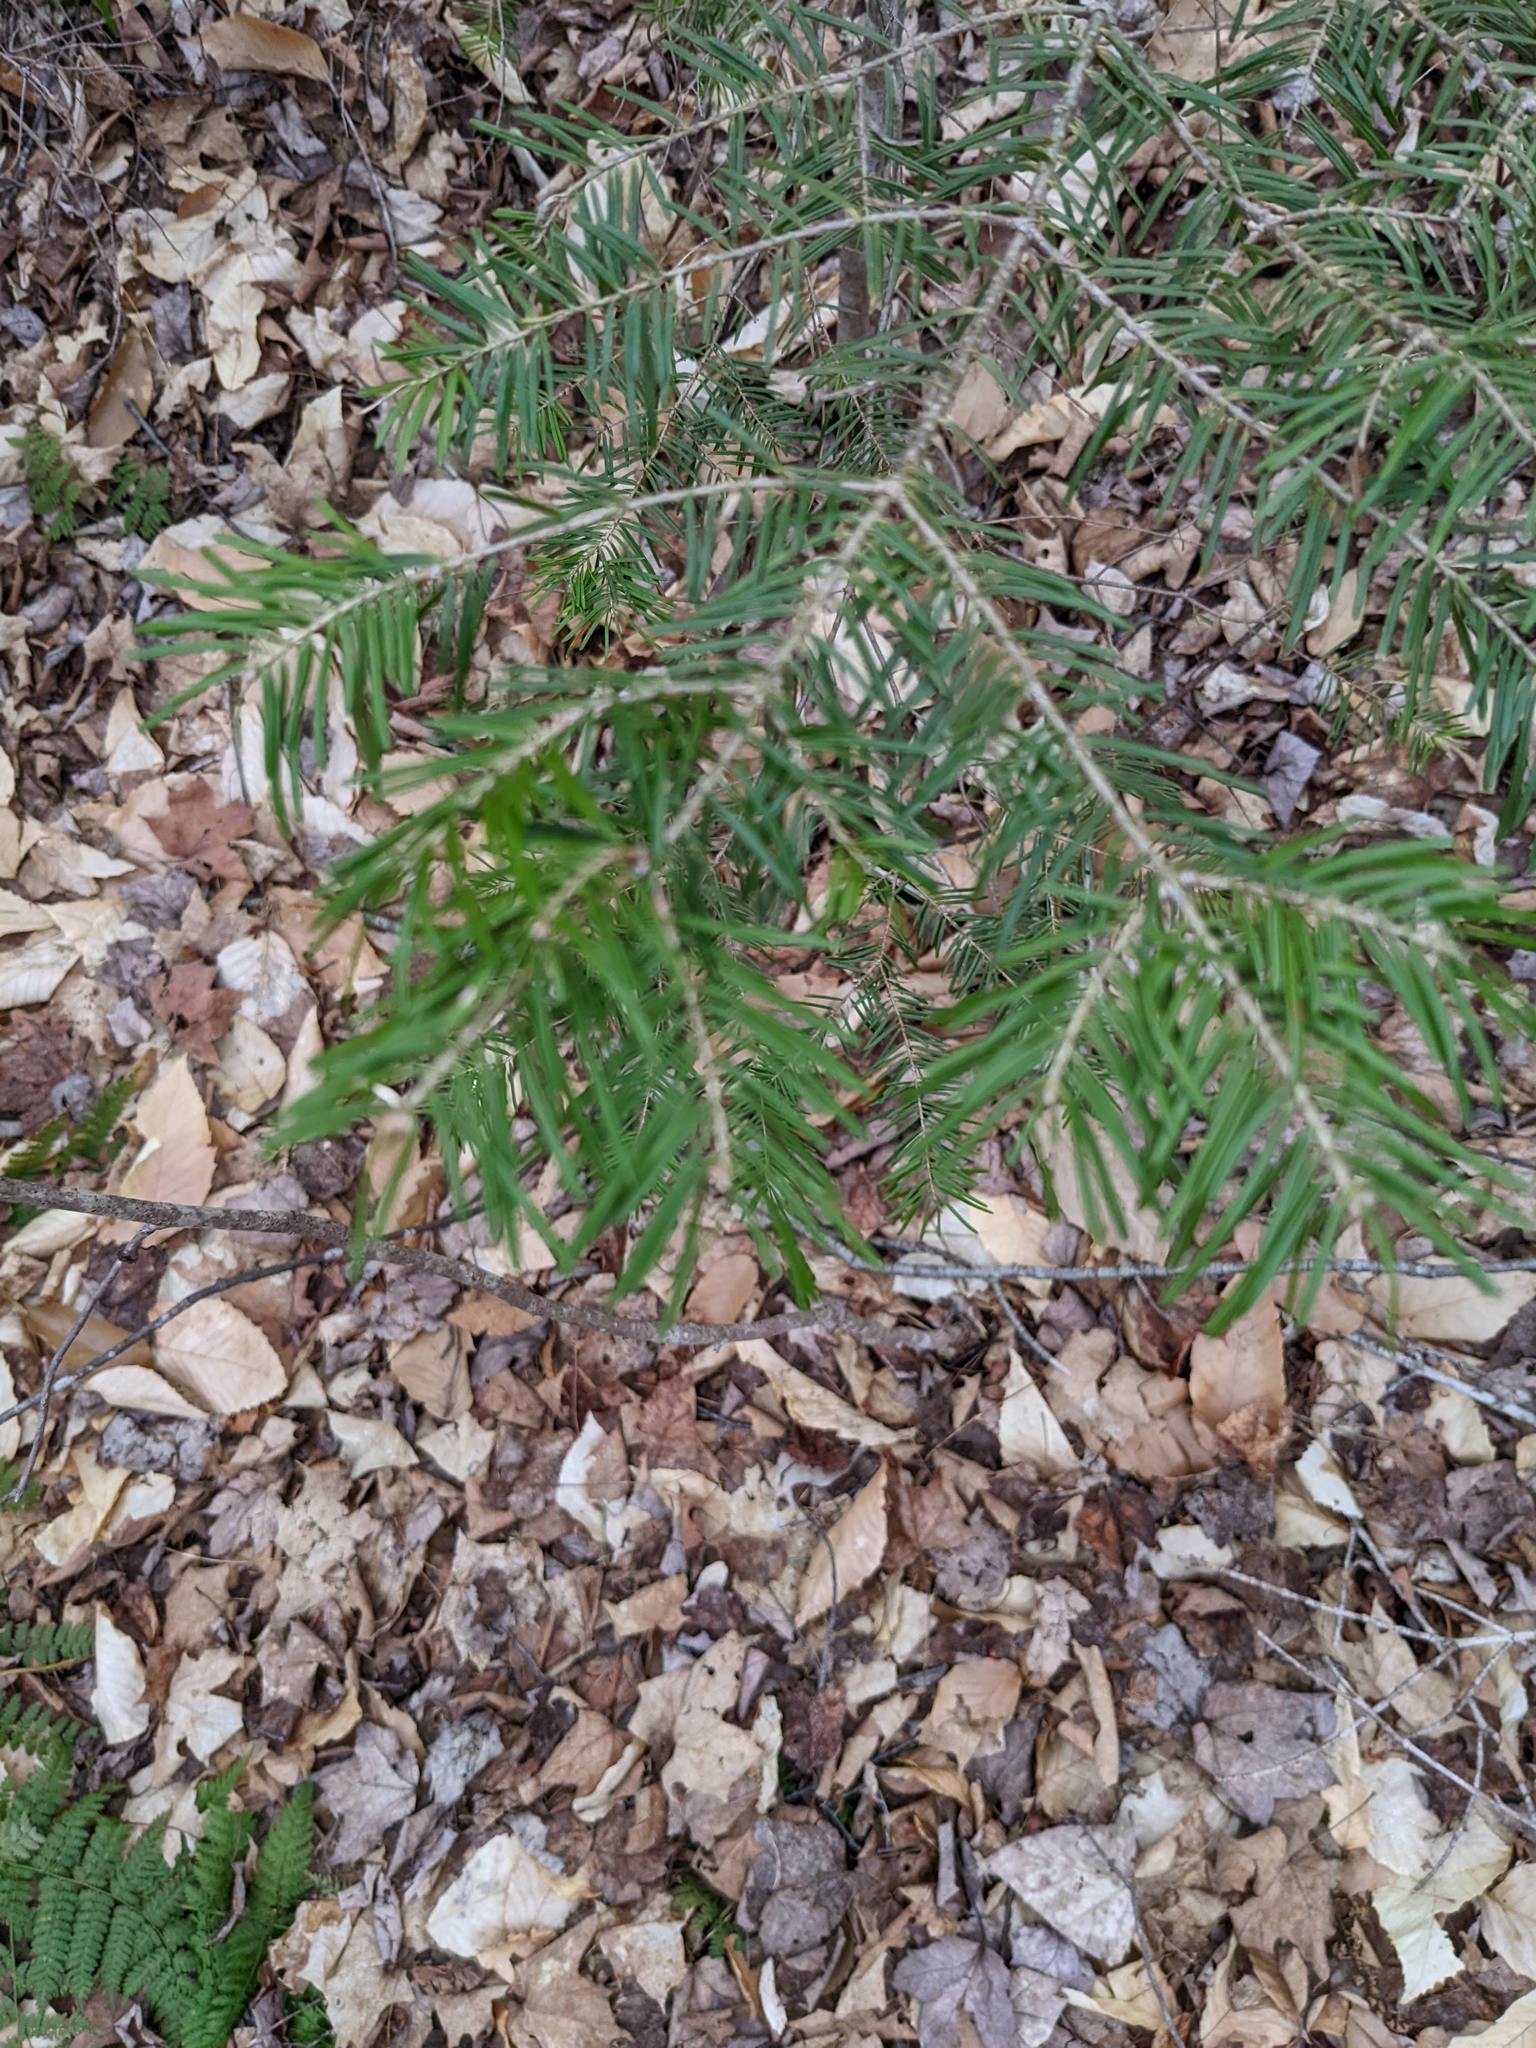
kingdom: Plantae
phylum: Tracheophyta
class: Pinopsida
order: Pinales
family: Pinaceae
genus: Abies
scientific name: Abies balsamea
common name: Balsam fir
